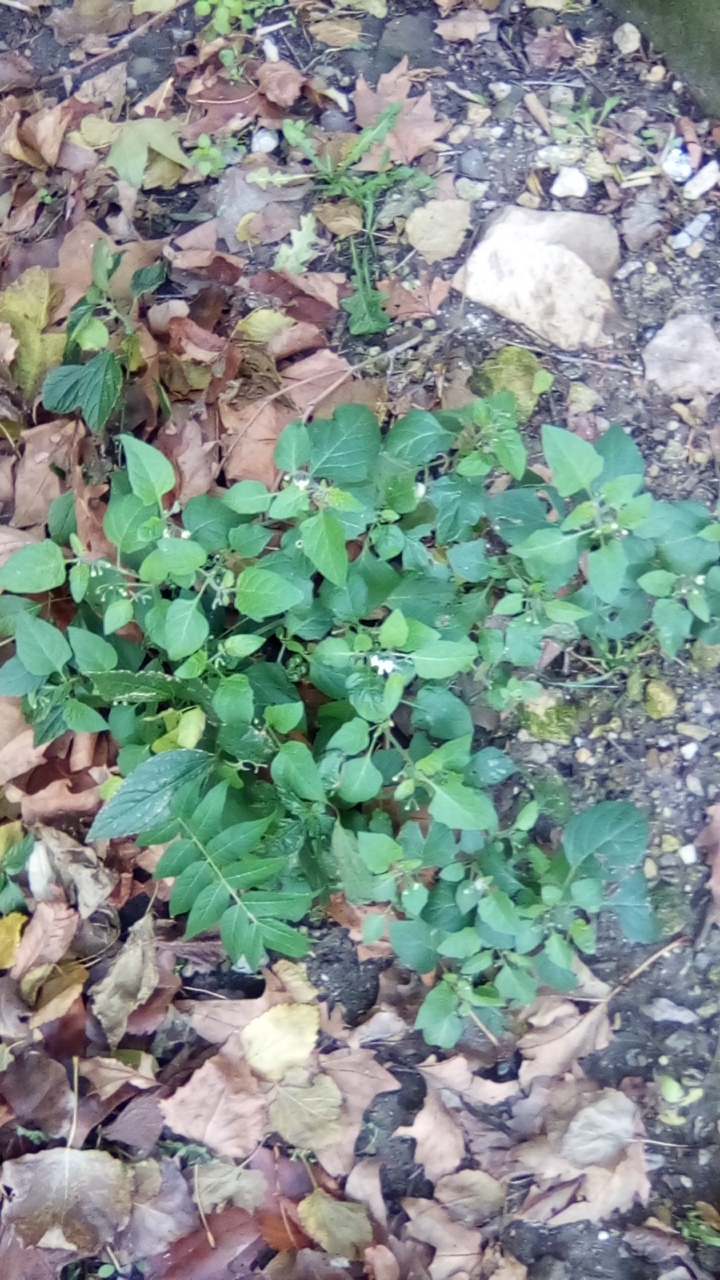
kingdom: Plantae
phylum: Tracheophyta
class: Magnoliopsida
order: Solanales
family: Solanaceae
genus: Solanum
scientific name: Solanum nigrum
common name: Black nightshade
